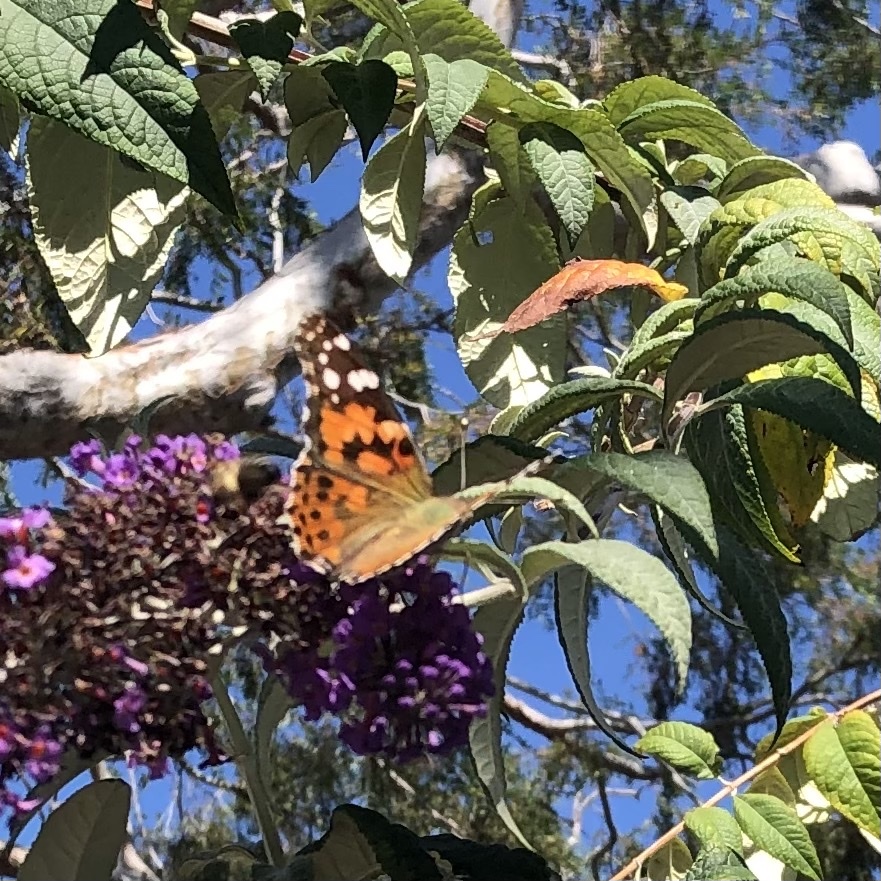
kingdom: Animalia
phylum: Arthropoda
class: Insecta
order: Lepidoptera
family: Nymphalidae
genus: Vanessa
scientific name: Vanessa cardui
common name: Painted lady
